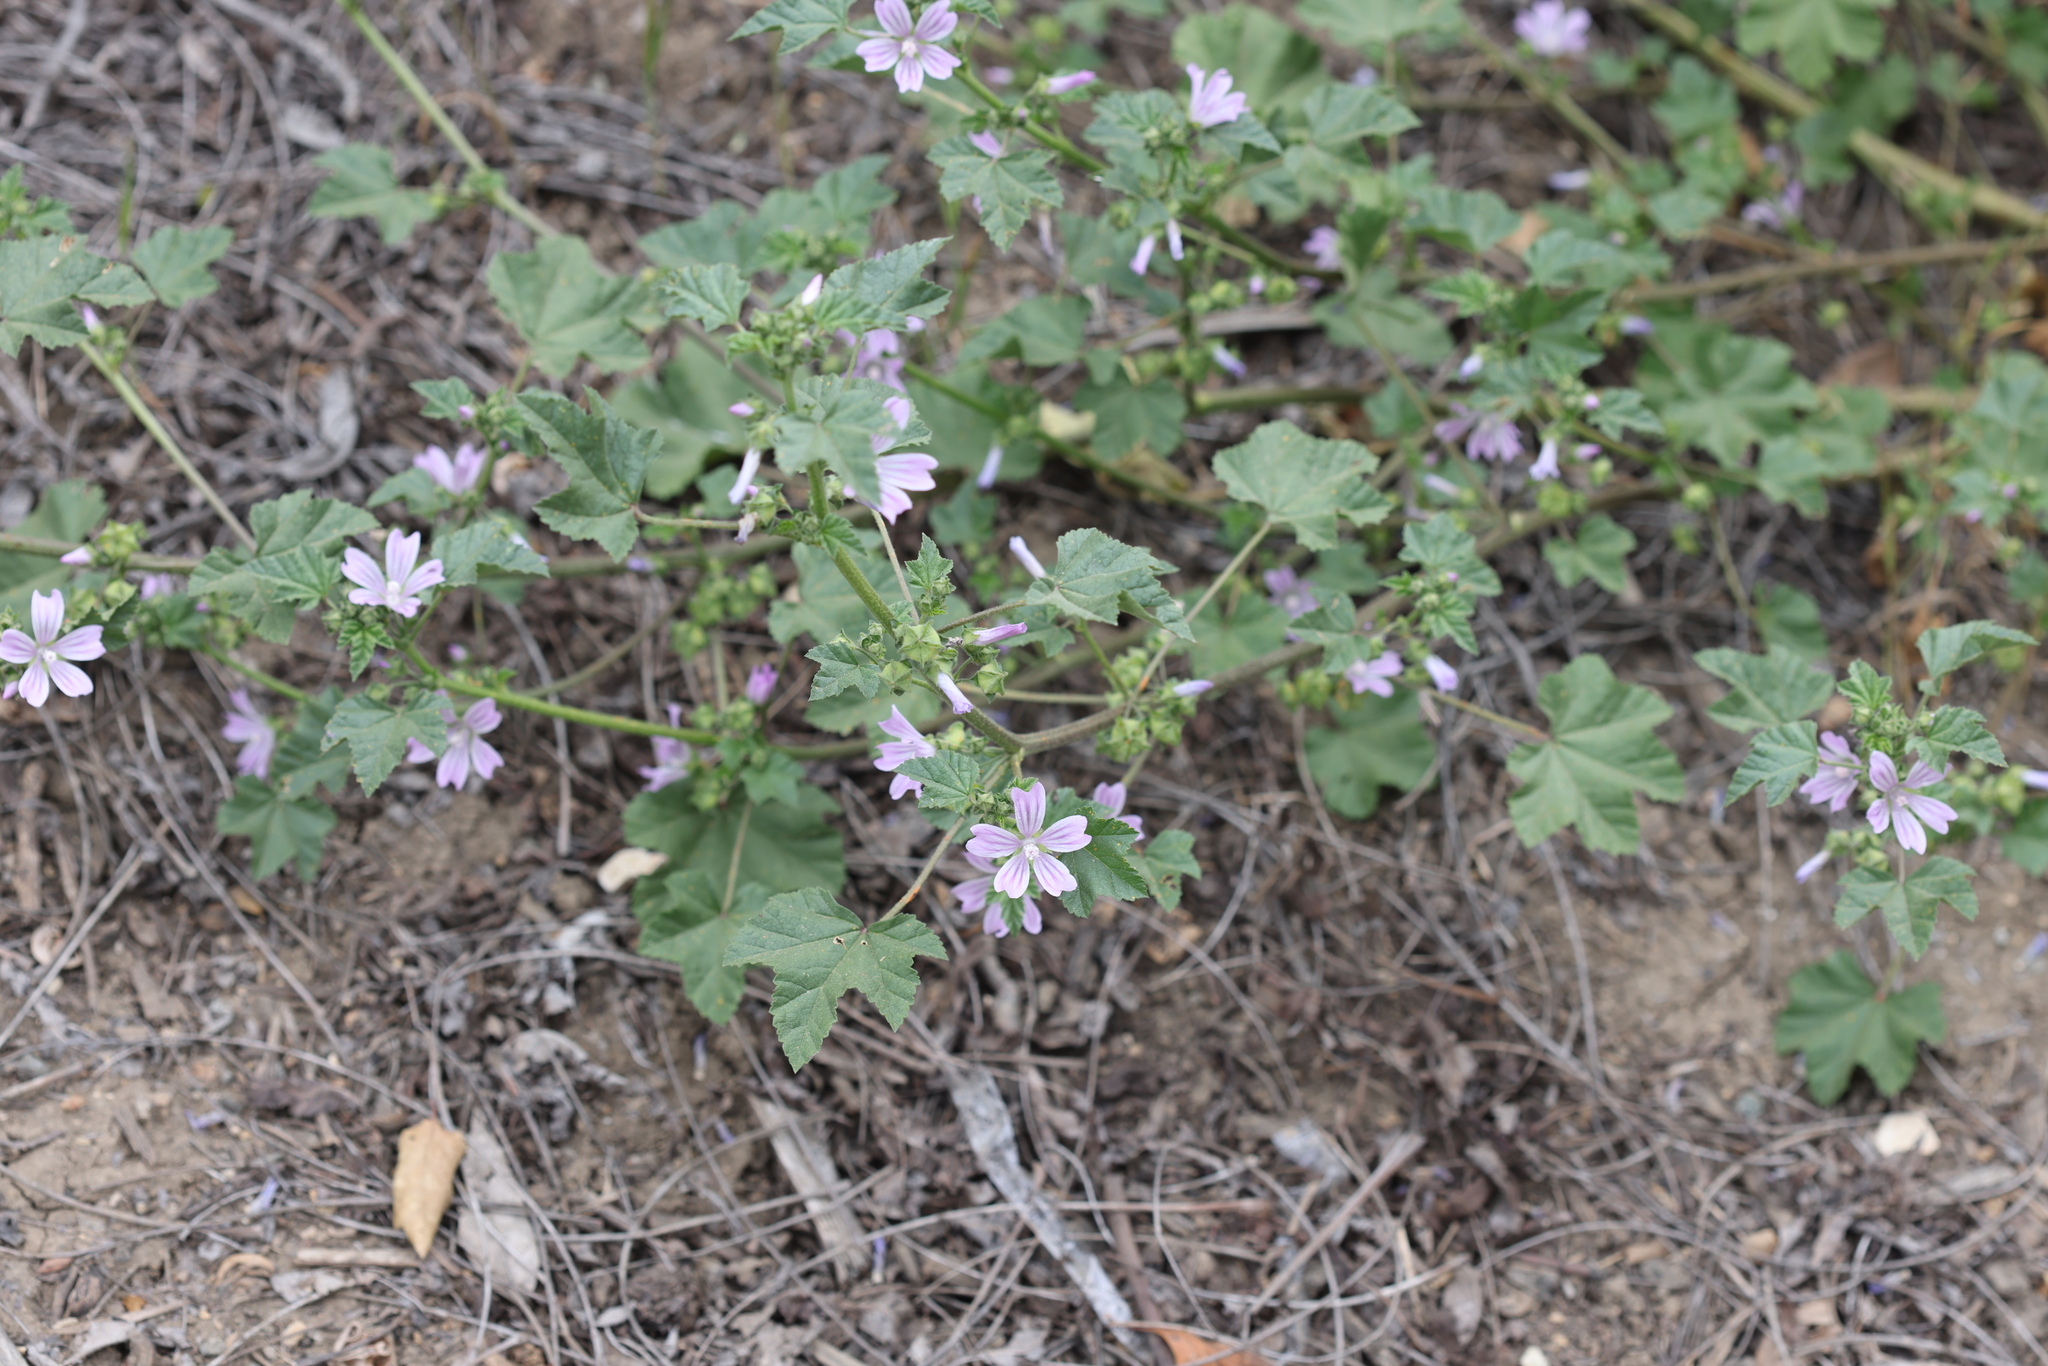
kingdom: Plantae
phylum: Tracheophyta
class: Magnoliopsida
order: Malvales
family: Malvaceae
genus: Malva
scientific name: Malva multiflora
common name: Cheeseweed
